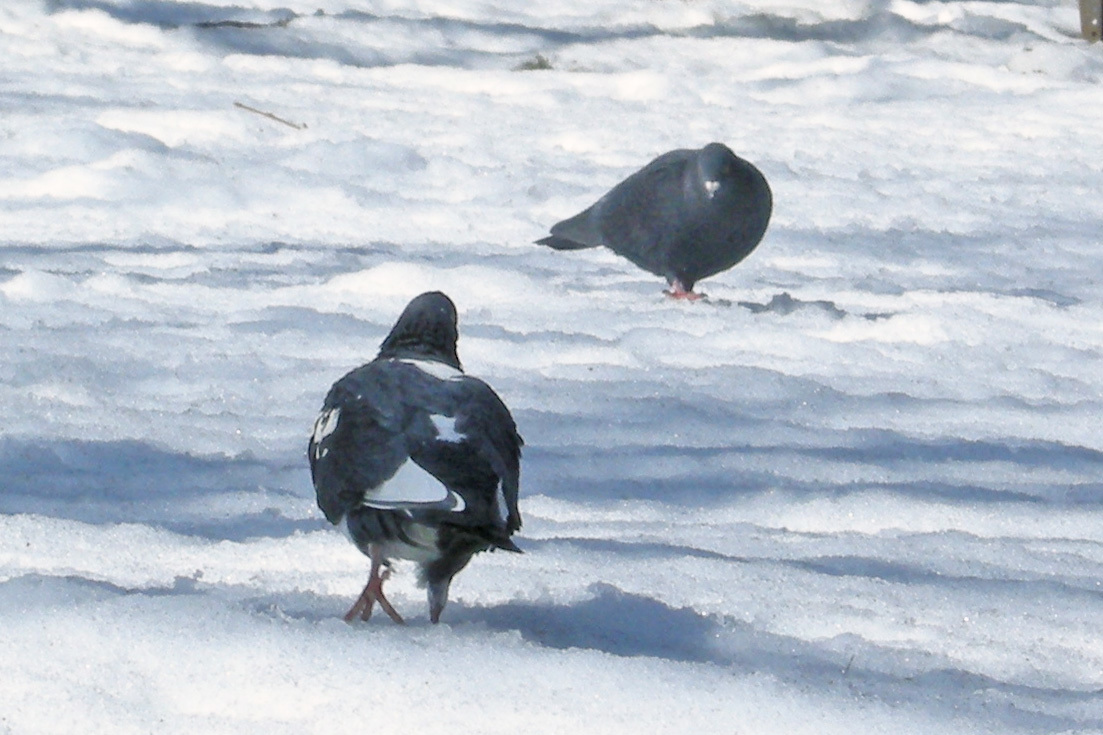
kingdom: Animalia
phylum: Chordata
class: Aves
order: Columbiformes
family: Columbidae
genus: Columba
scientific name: Columba livia
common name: Rock pigeon
